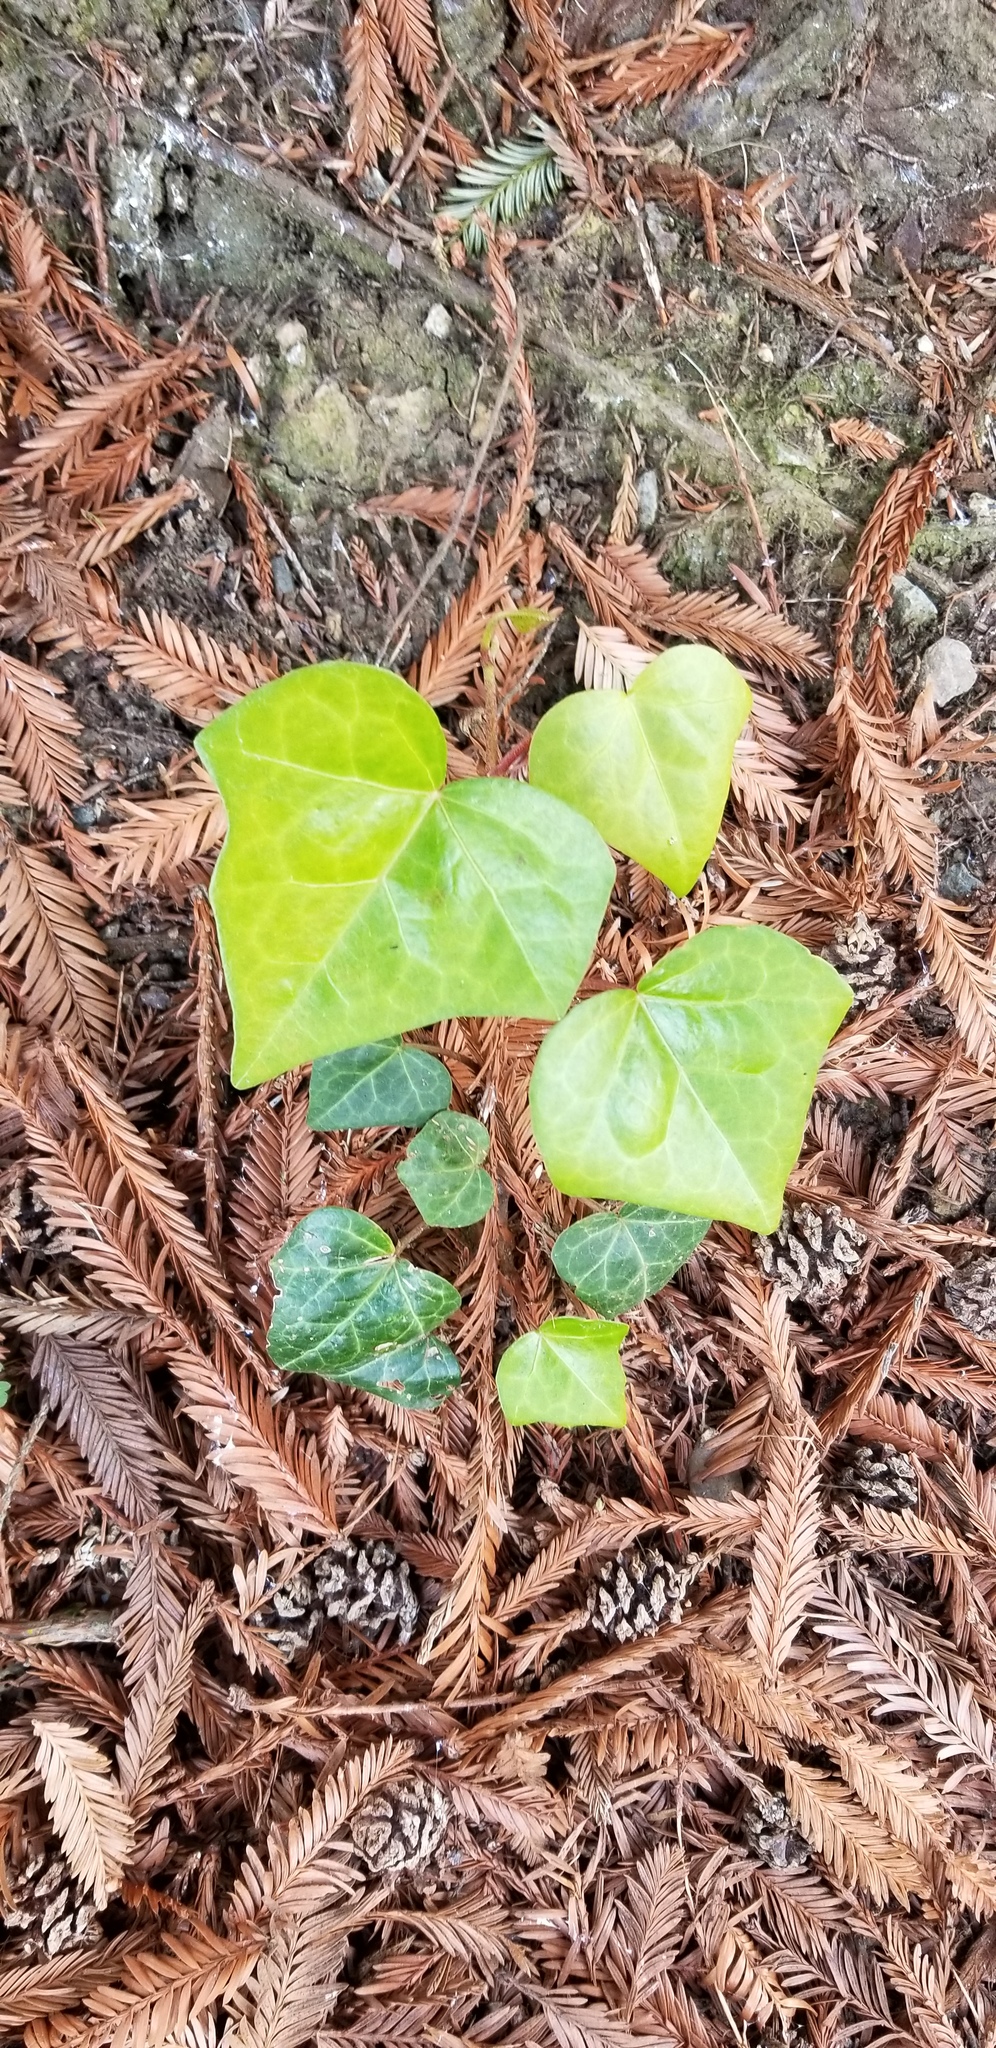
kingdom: Plantae
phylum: Tracheophyta
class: Magnoliopsida
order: Apiales
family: Araliaceae
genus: Hedera
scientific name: Hedera helix
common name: Ivy
